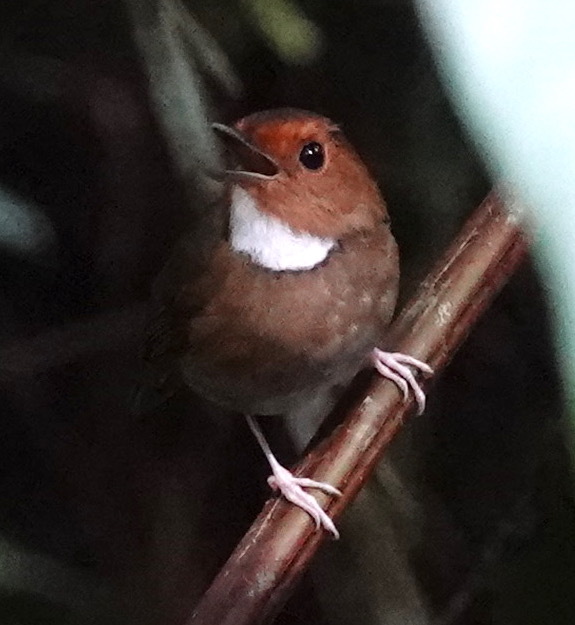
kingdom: Animalia
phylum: Chordata
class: Aves
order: Passeriformes
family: Muscicapidae
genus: Anthipes
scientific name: Anthipes solitaris
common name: Rufous-browed flycatcher
